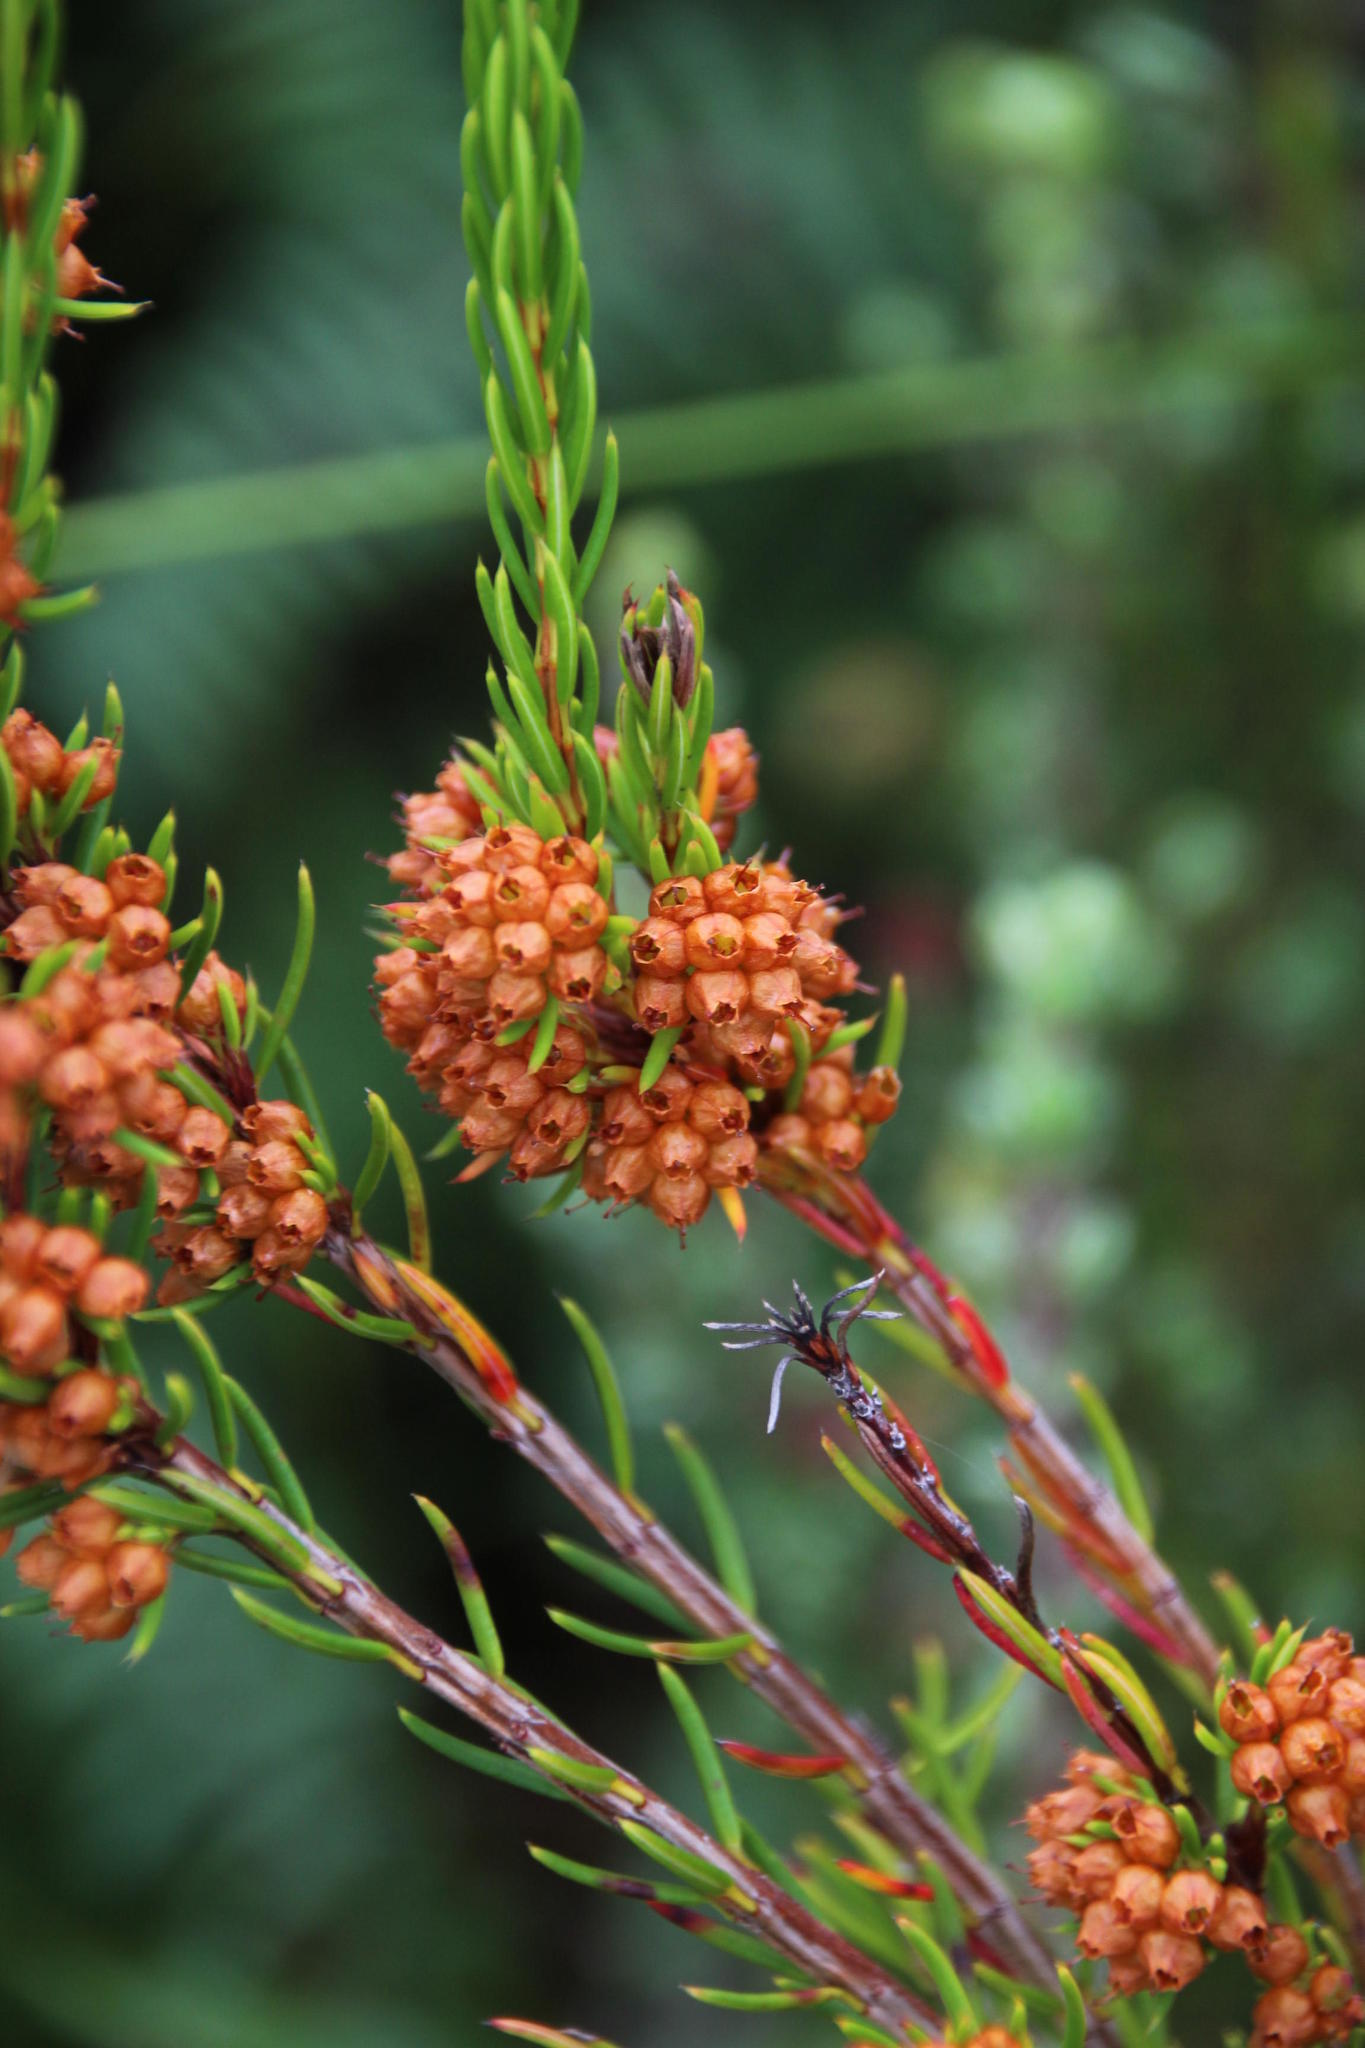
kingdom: Plantae
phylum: Tracheophyta
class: Magnoliopsida
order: Ericales
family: Ericaceae
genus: Erica
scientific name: Erica conferta
